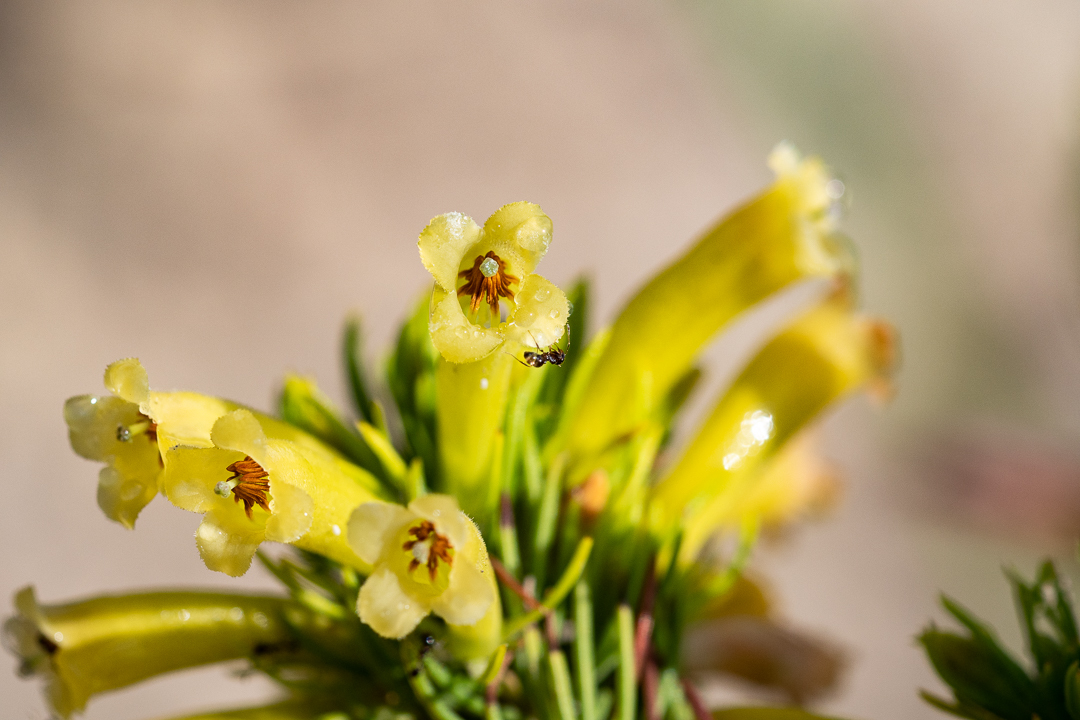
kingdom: Plantae
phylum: Tracheophyta
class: Magnoliopsida
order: Ericales
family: Ericaceae
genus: Erica
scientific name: Erica viscaria
